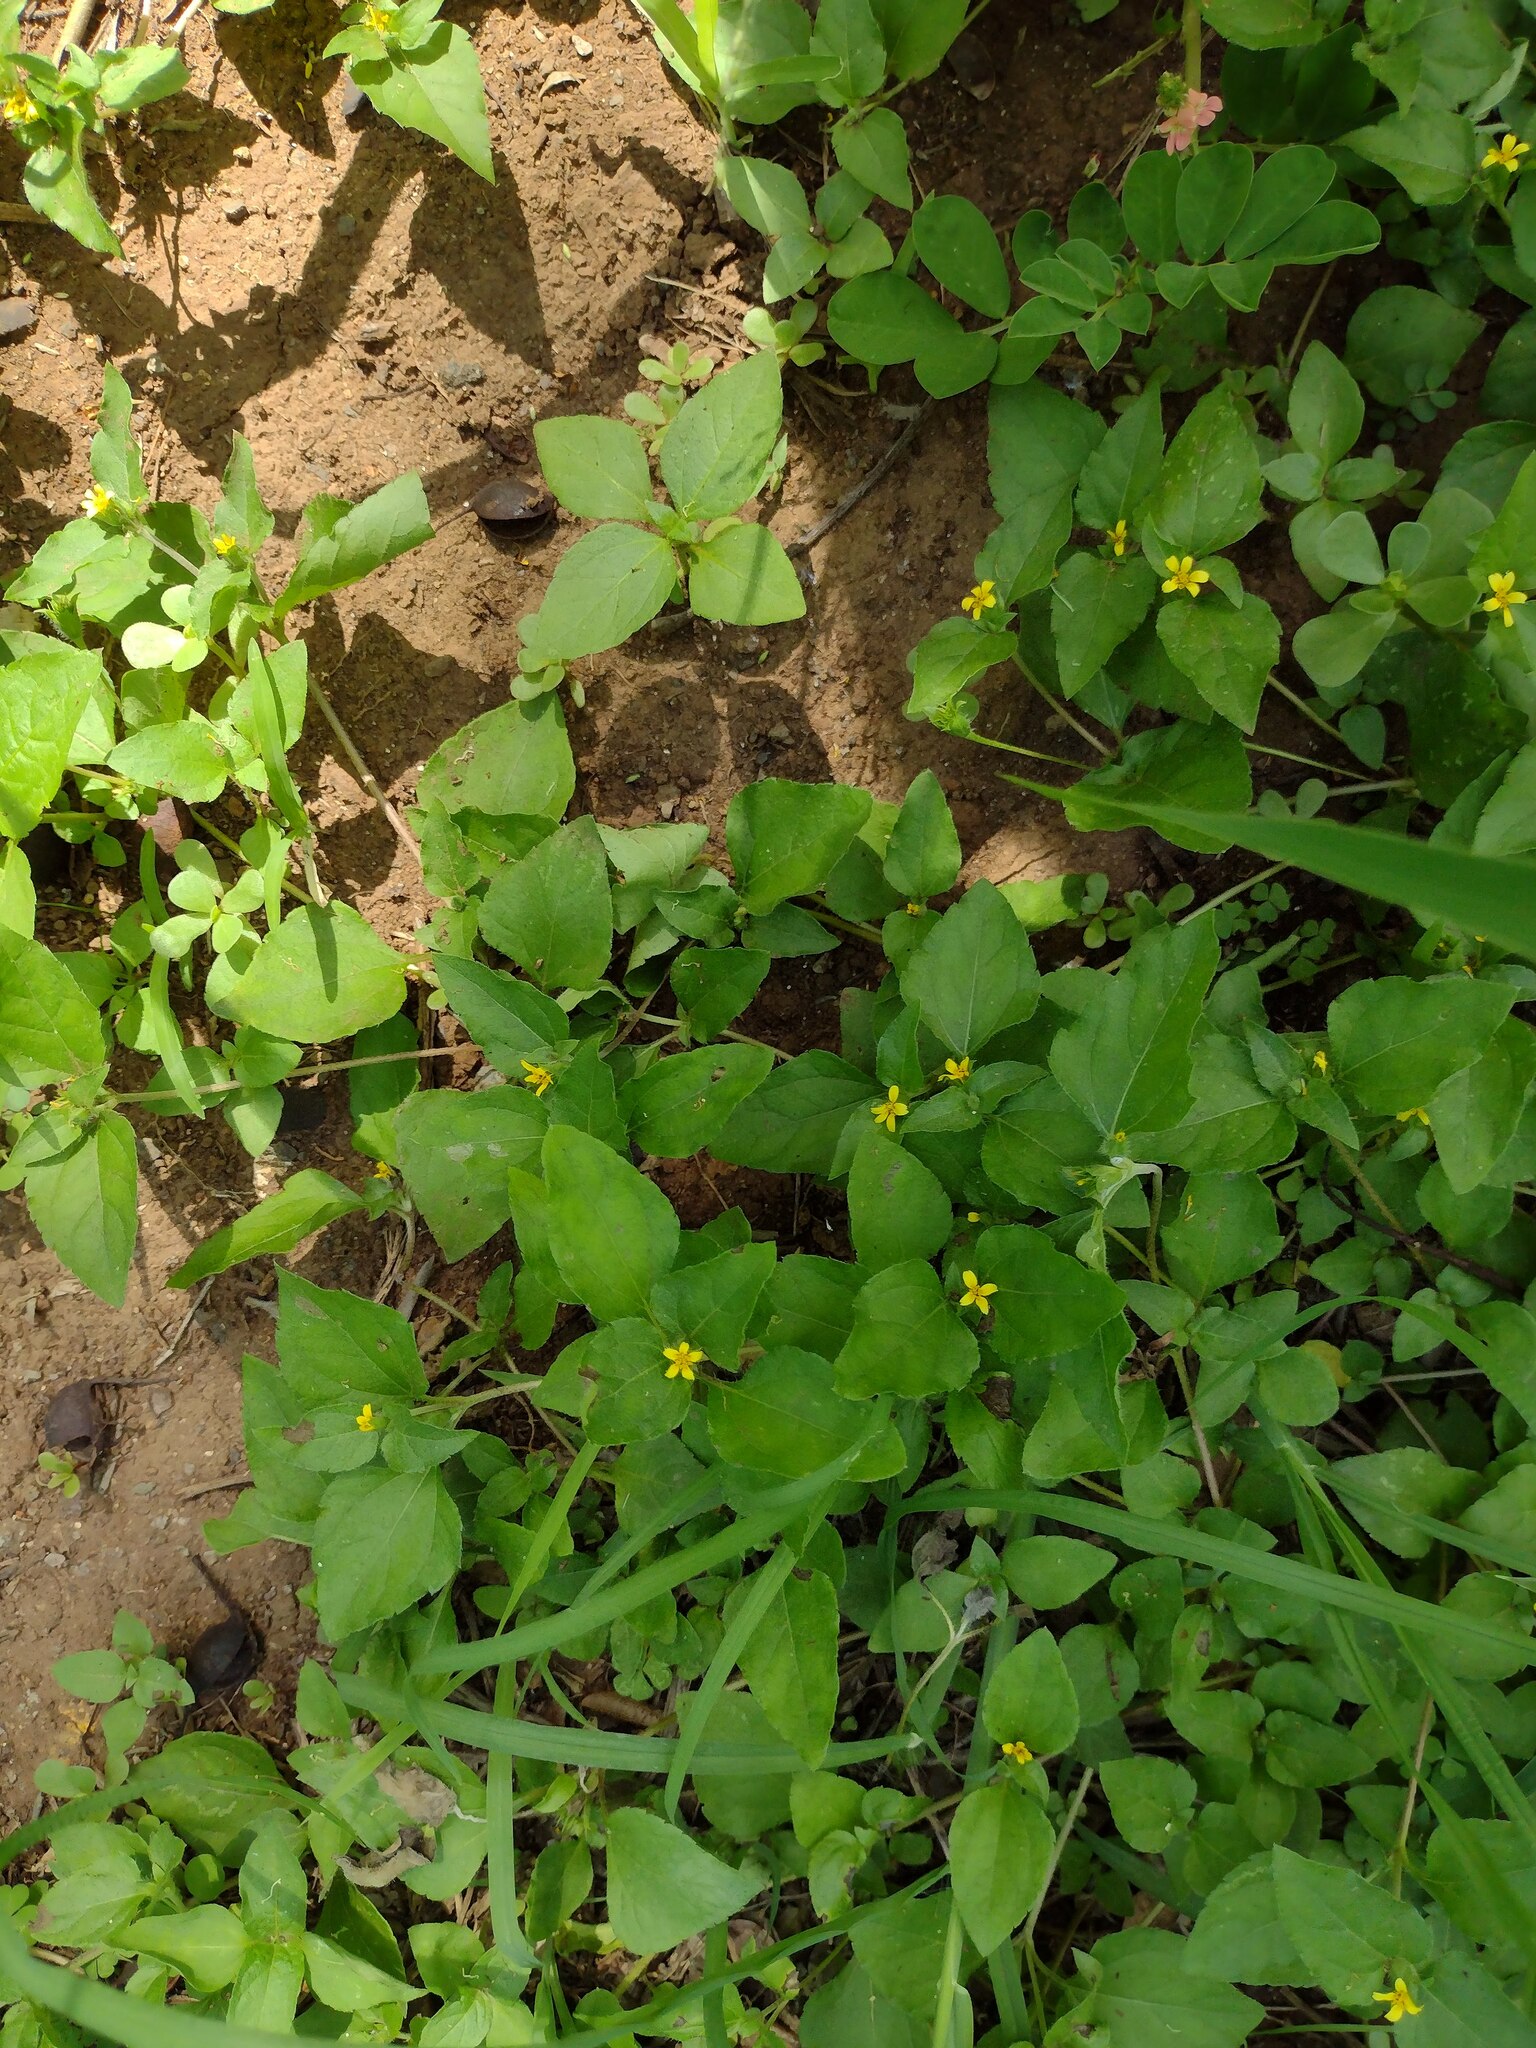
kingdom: Plantae
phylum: Tracheophyta
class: Magnoliopsida
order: Asterales
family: Asteraceae
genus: Calyptocarpus
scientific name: Calyptocarpus vialis
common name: Straggler daisy
